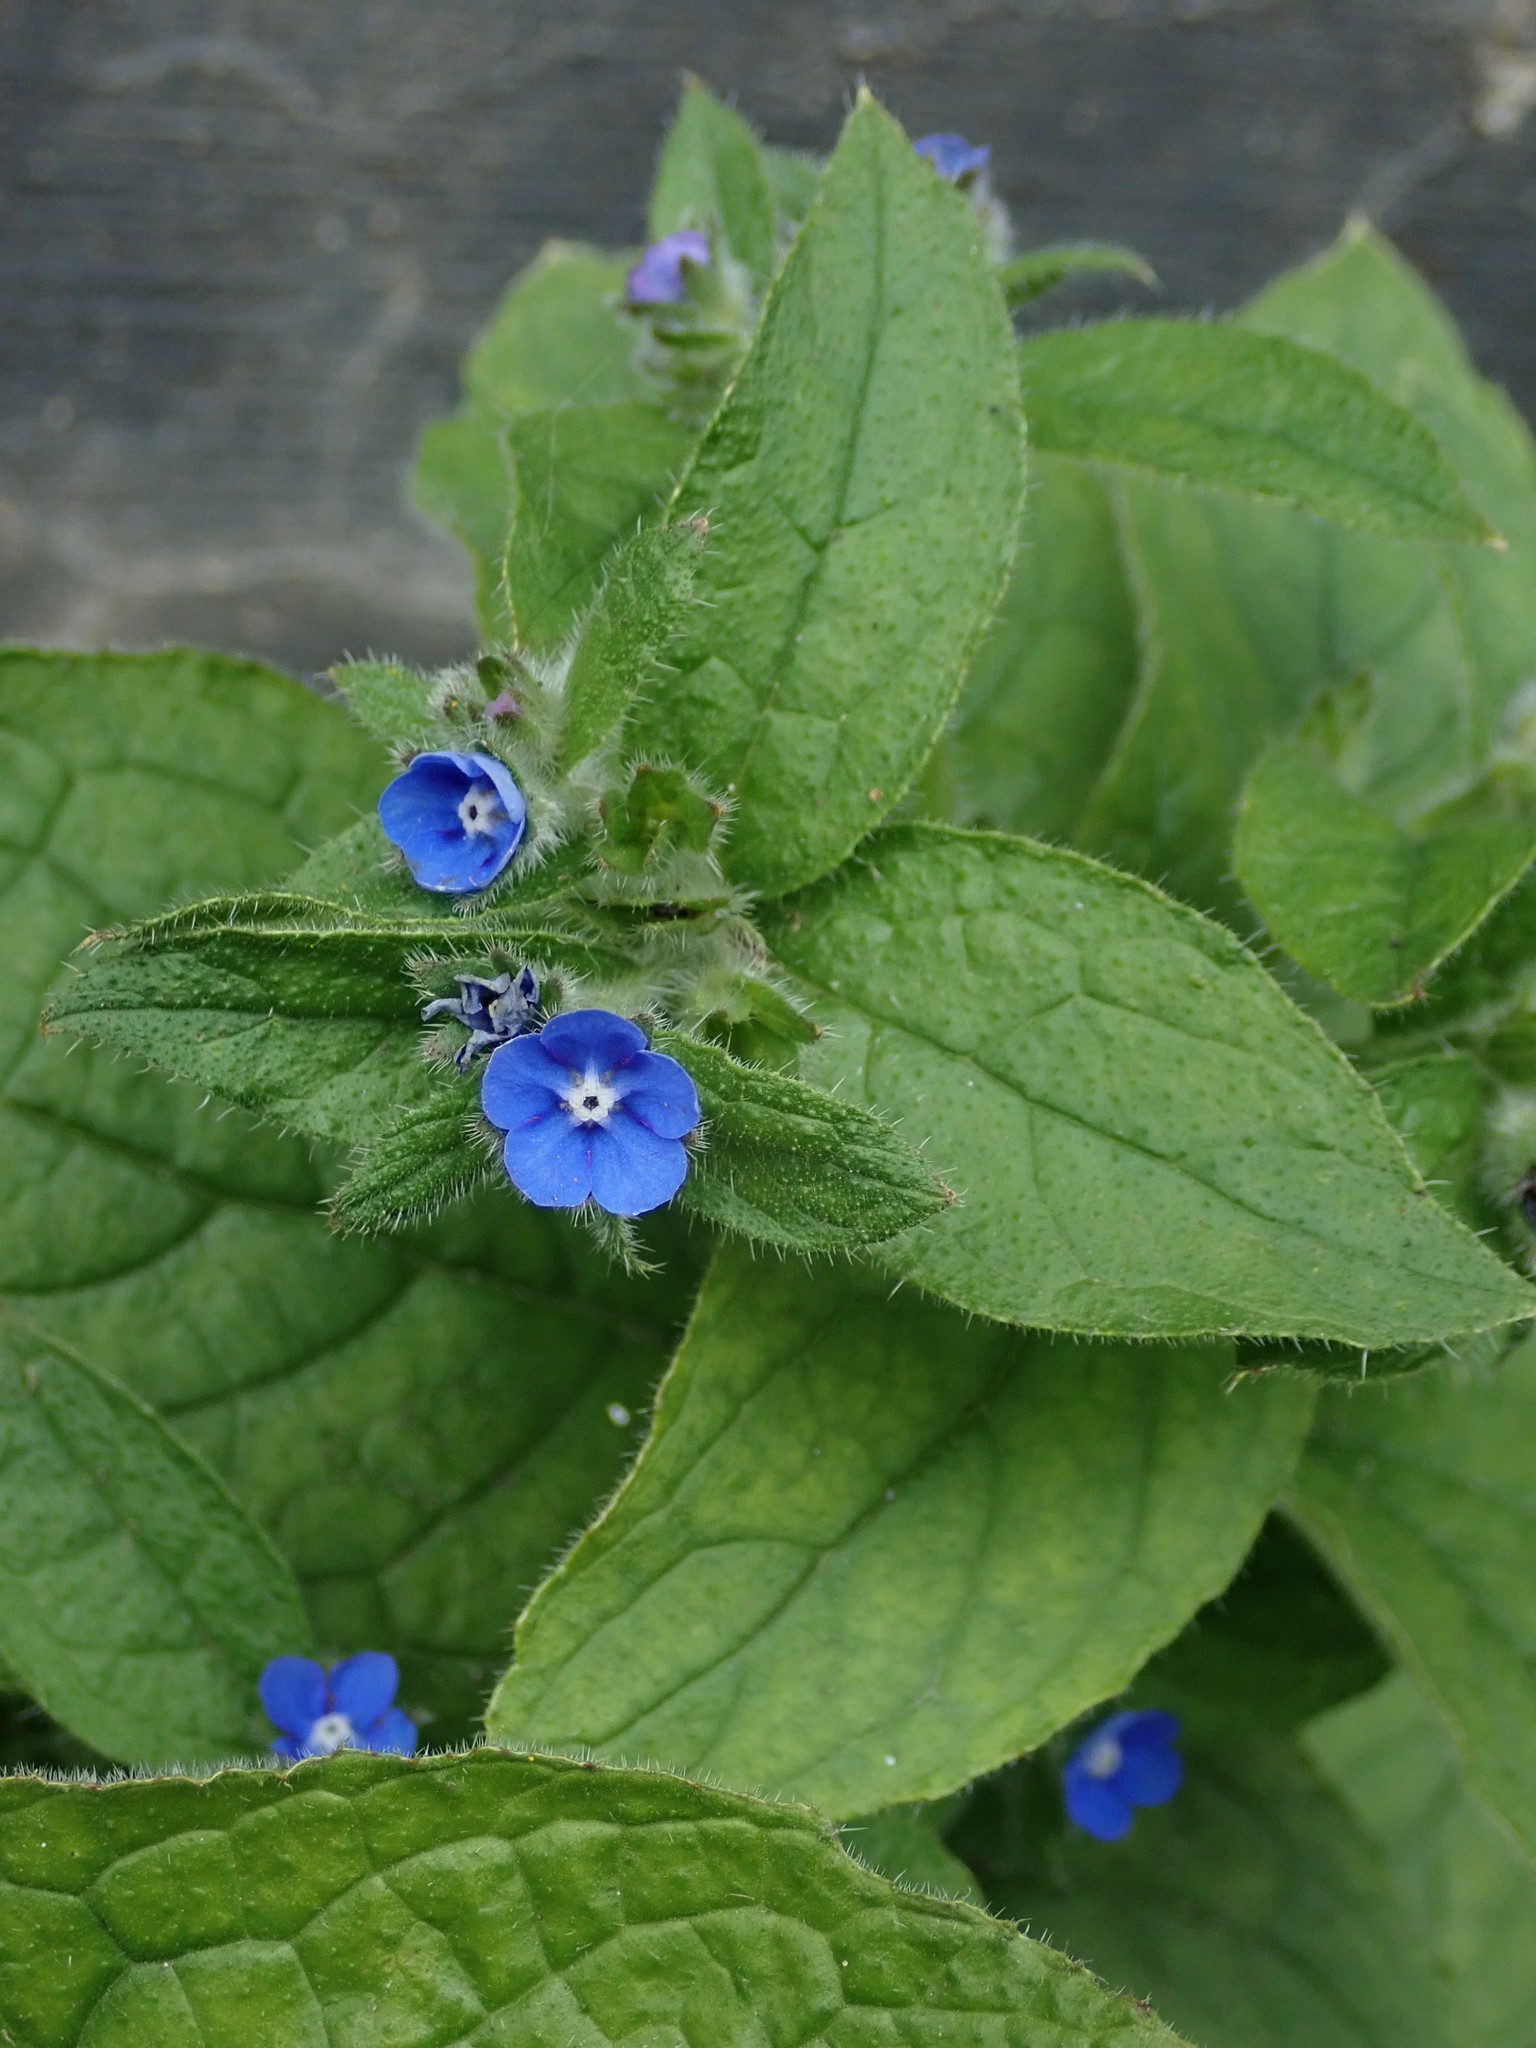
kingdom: Plantae
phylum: Tracheophyta
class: Magnoliopsida
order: Boraginales
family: Boraginaceae
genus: Pentaglottis
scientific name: Pentaglottis sempervirens
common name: Green alkanet
